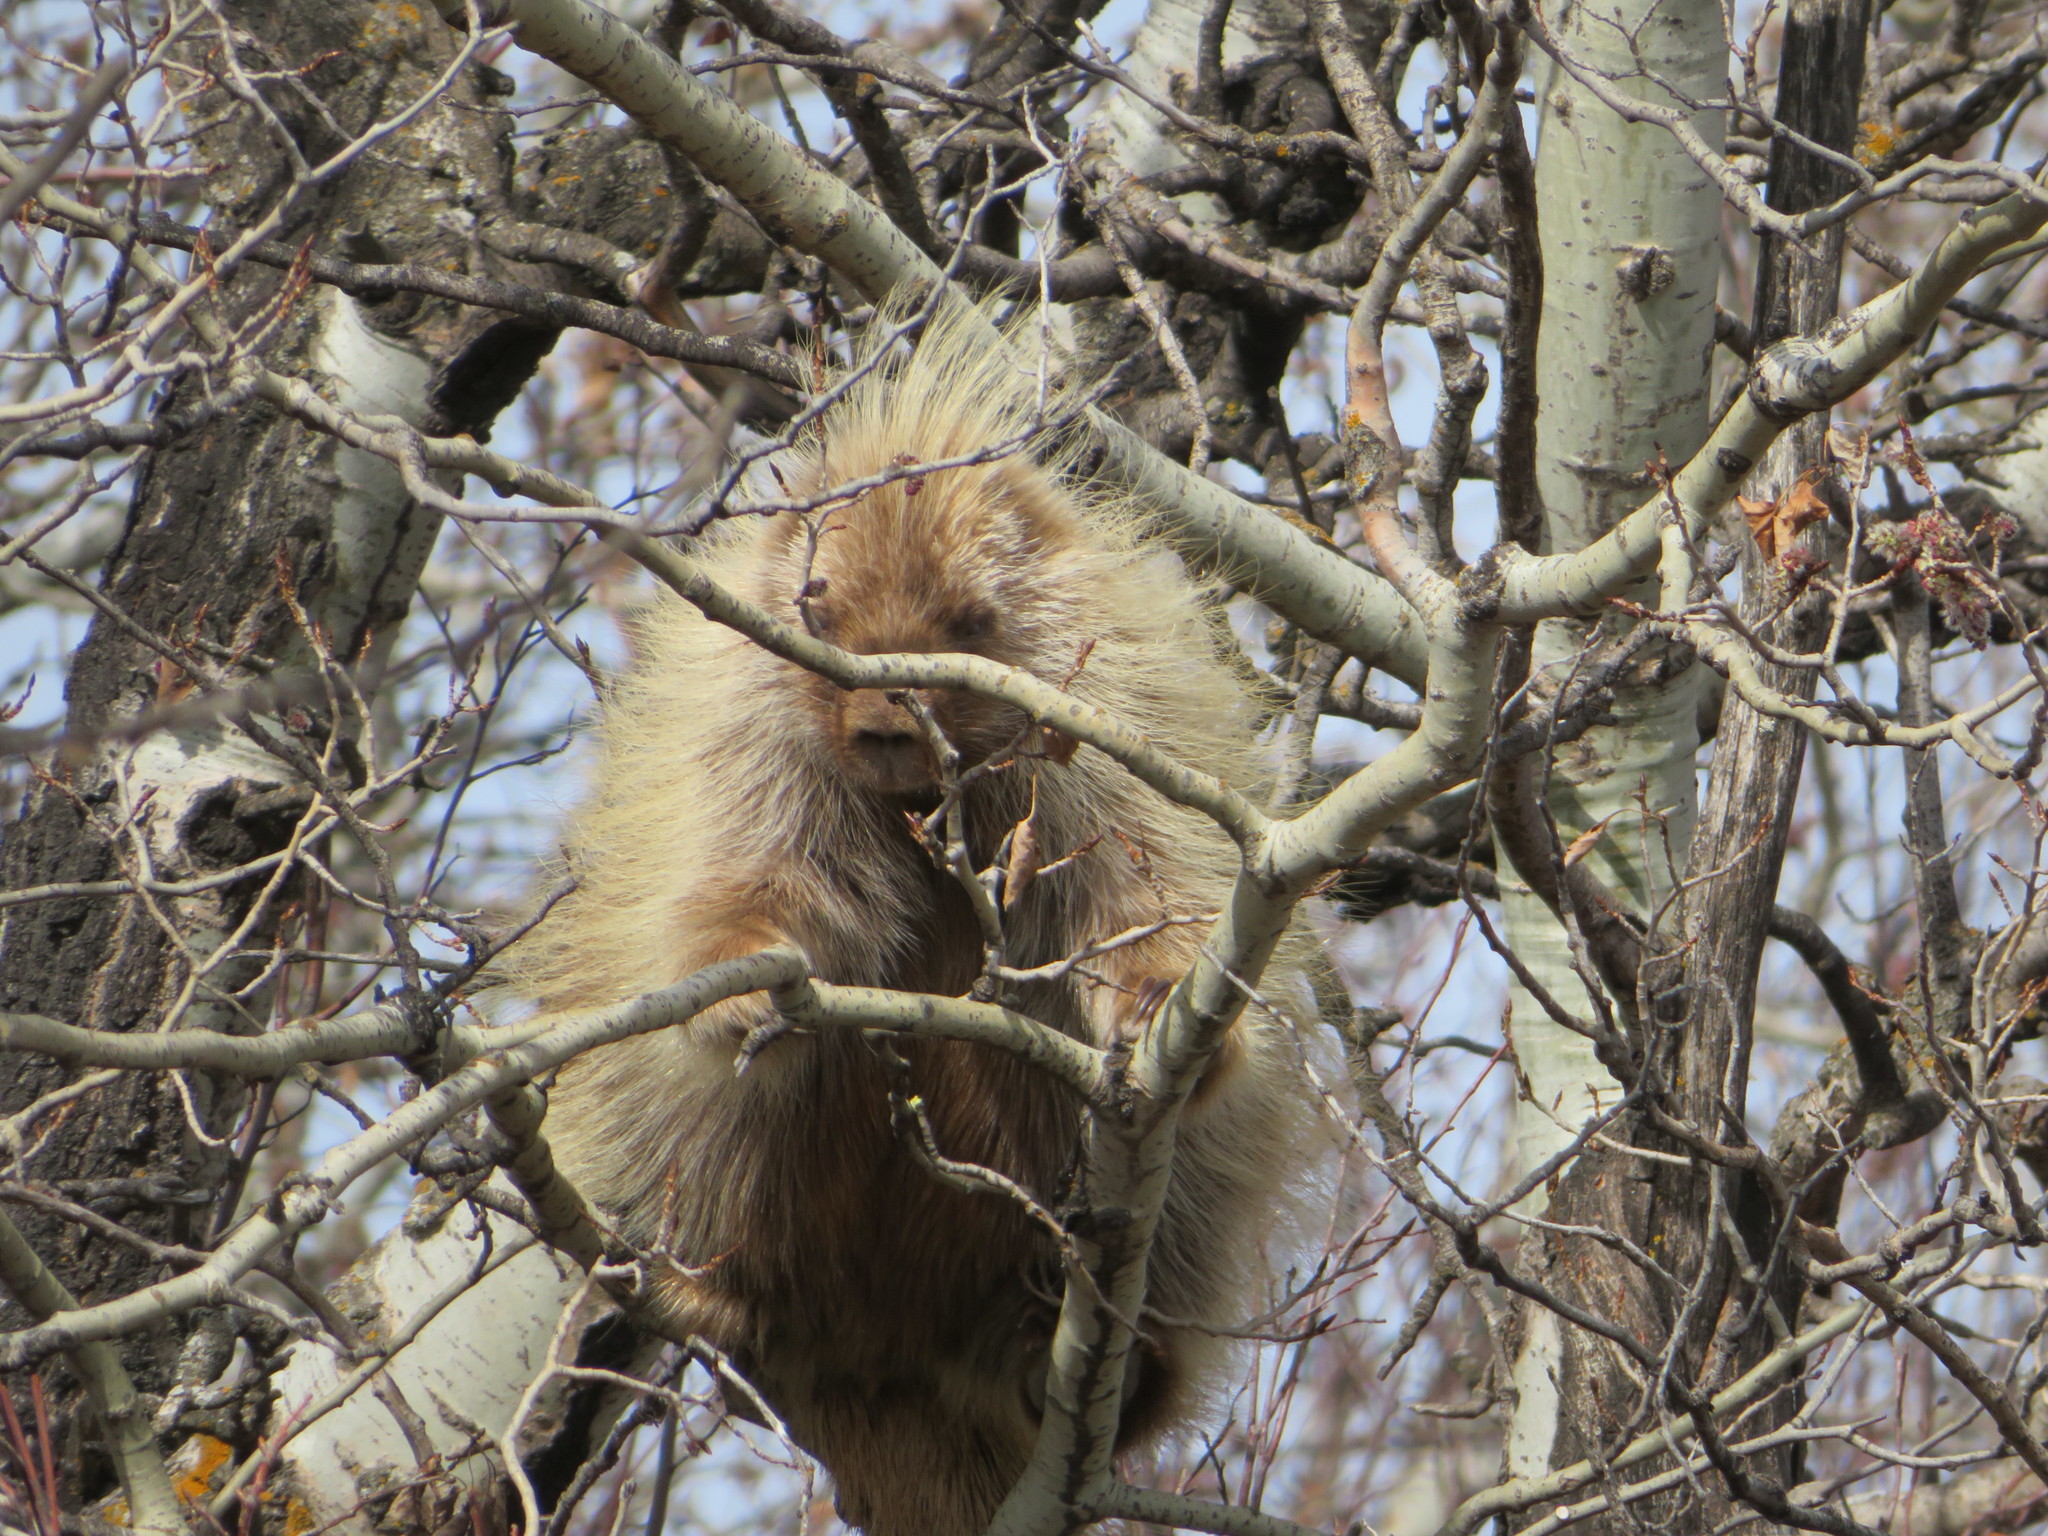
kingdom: Animalia
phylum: Chordata
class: Mammalia
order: Rodentia
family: Erethizontidae
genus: Erethizon
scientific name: Erethizon dorsatus
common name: North american porcupine
